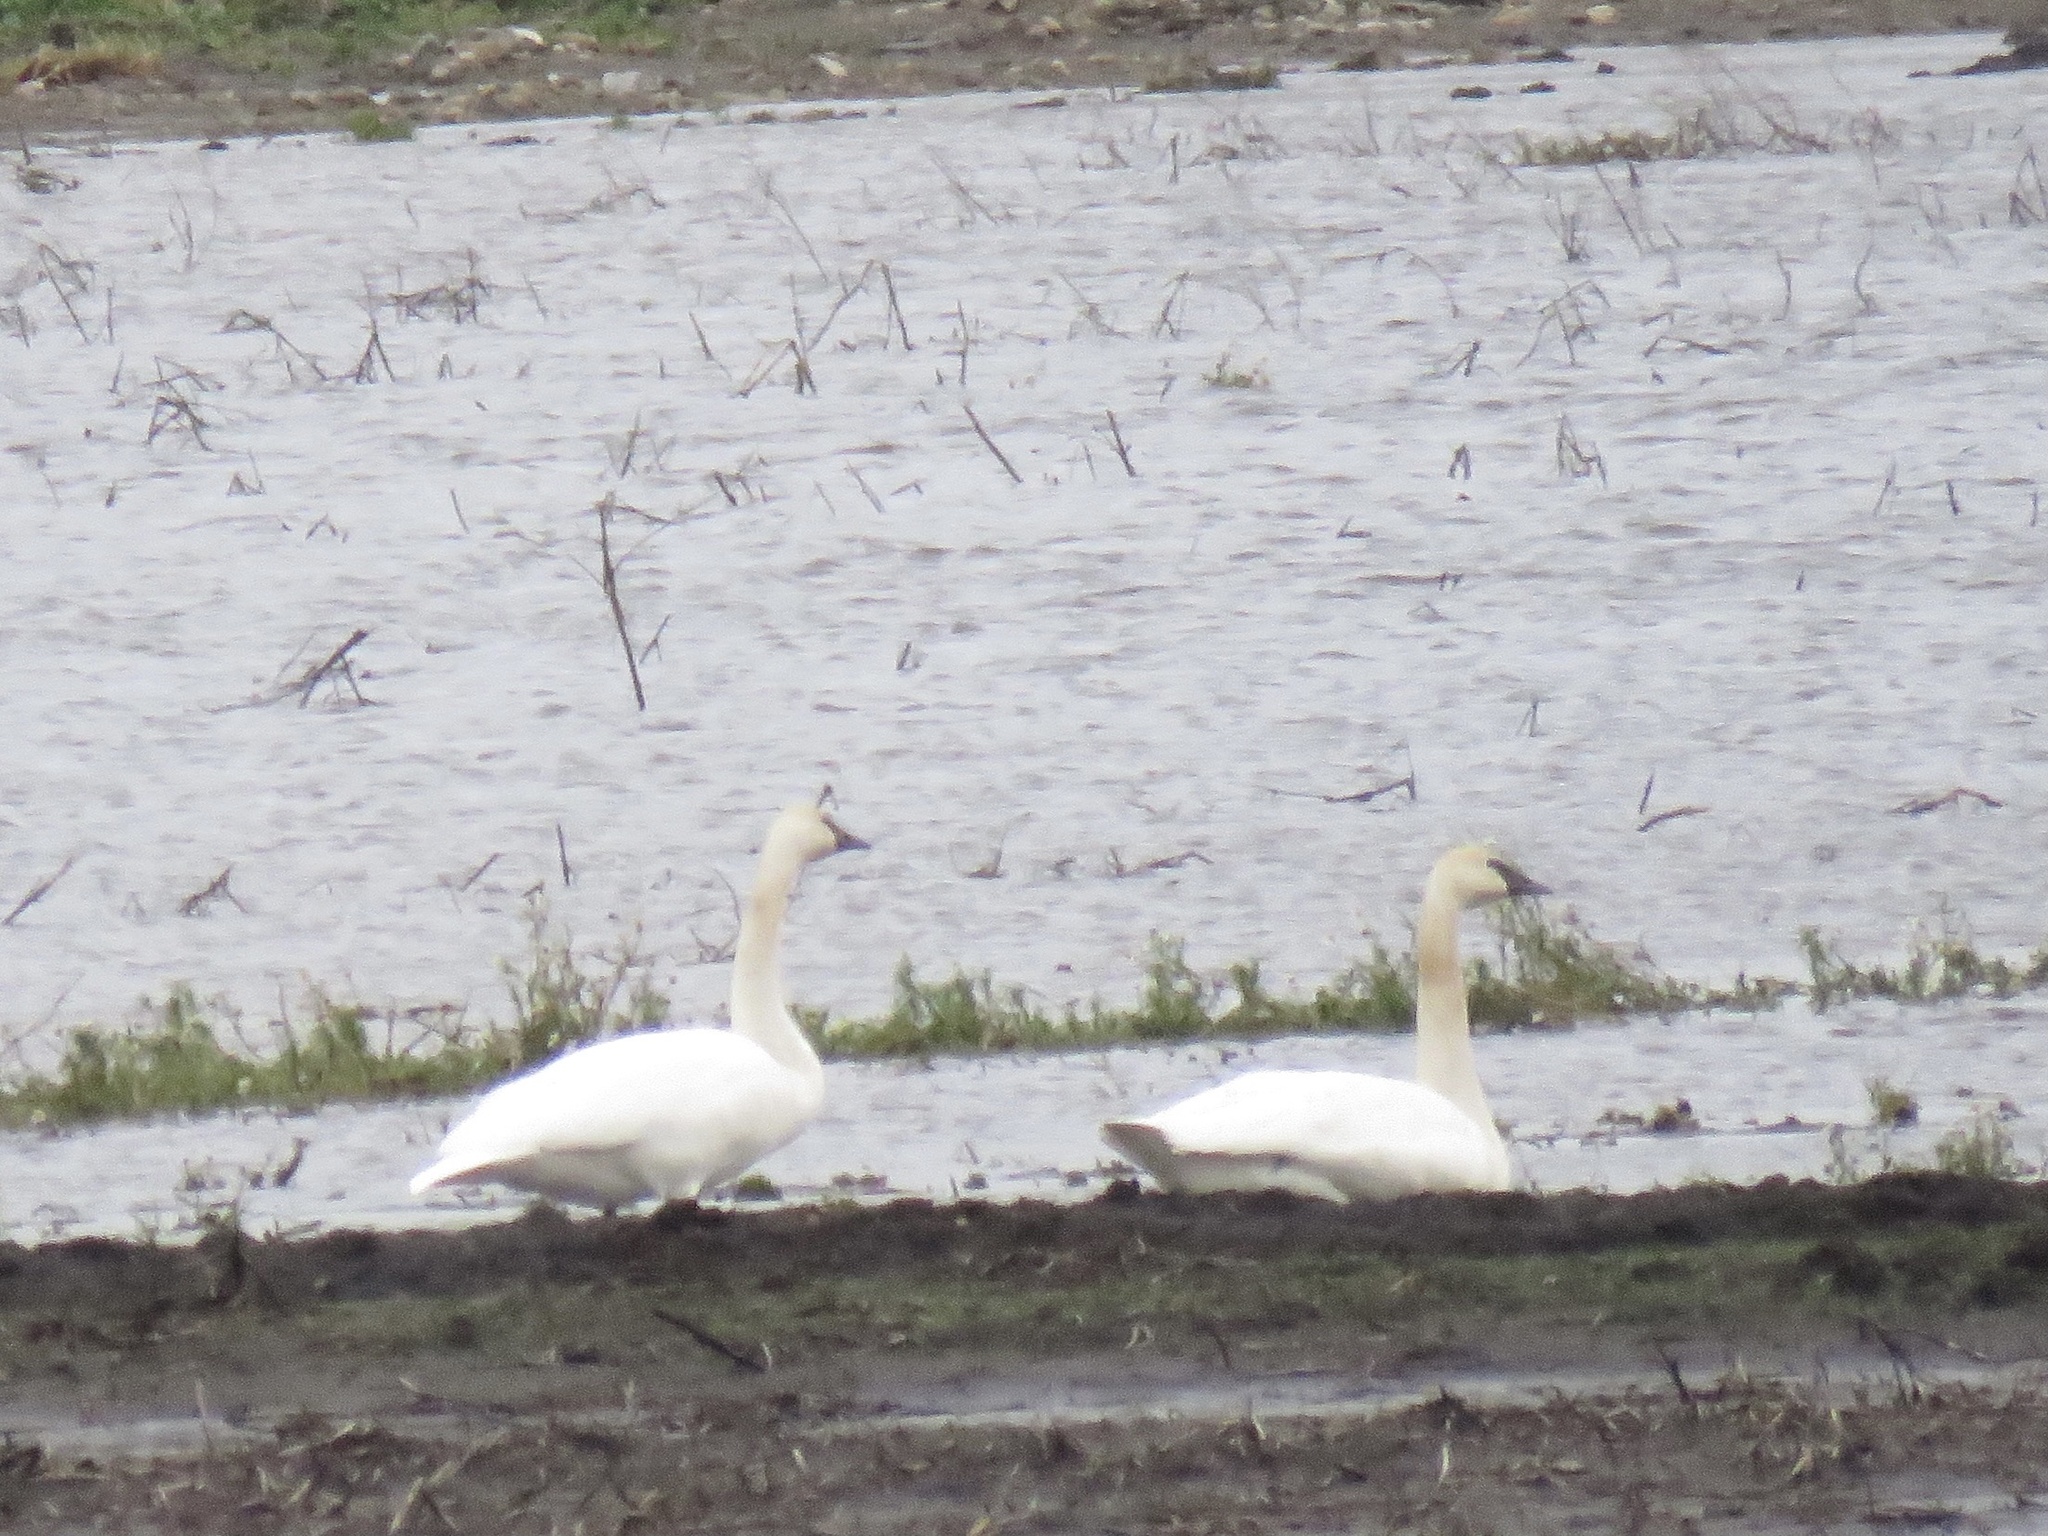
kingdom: Animalia
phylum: Chordata
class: Aves
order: Anseriformes
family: Anatidae
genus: Cygnus
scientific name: Cygnus buccinator
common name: Trumpeter swan
